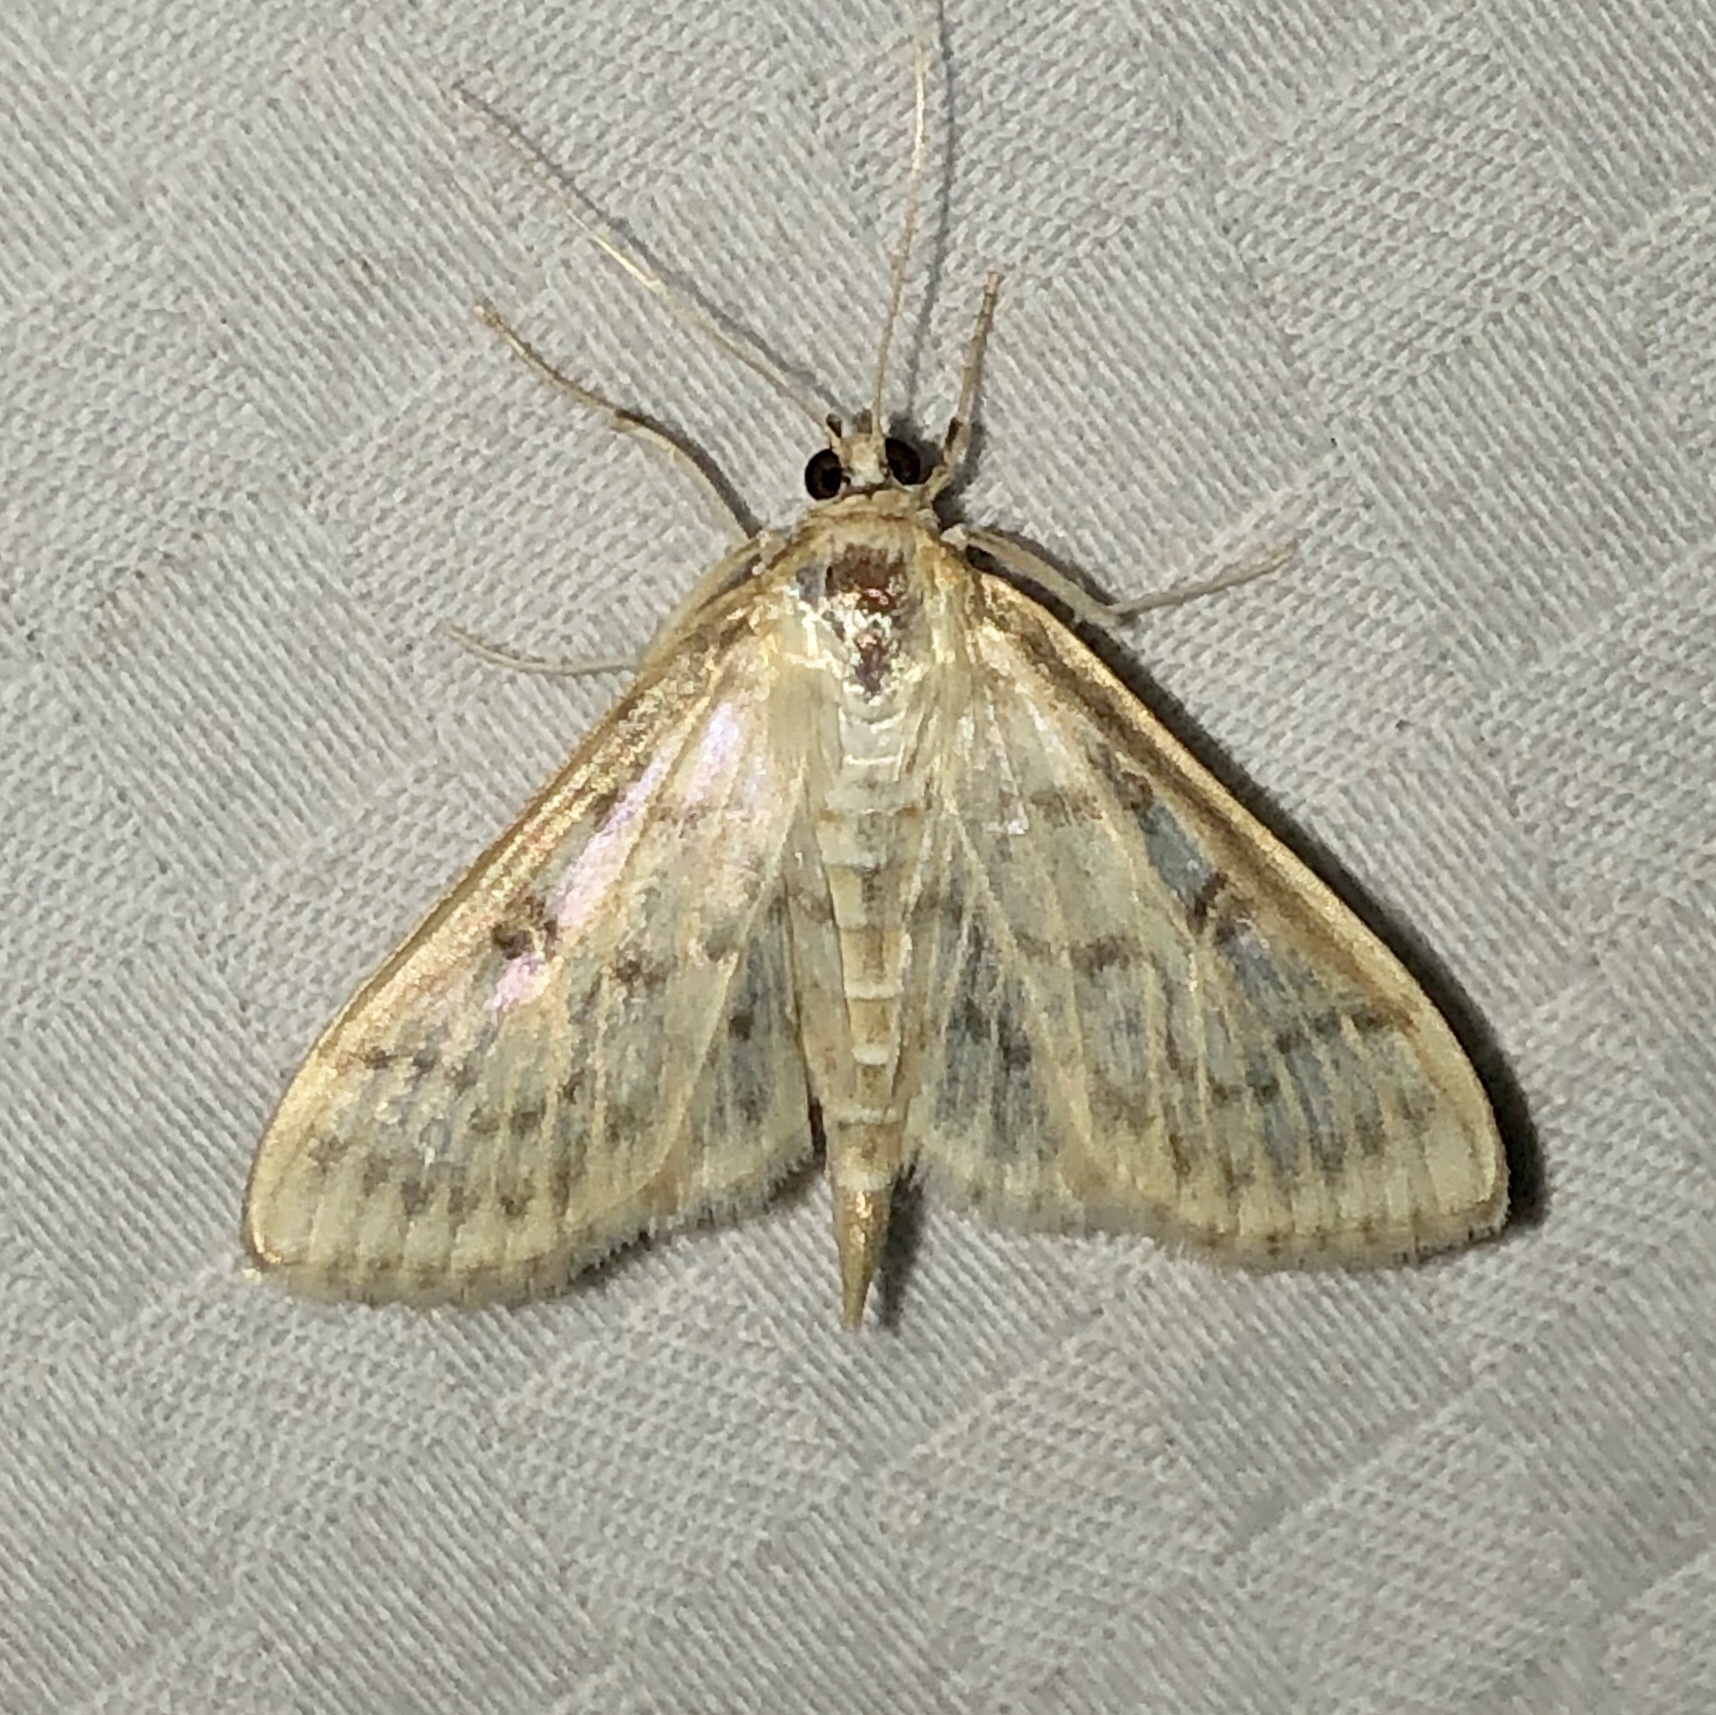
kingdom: Animalia
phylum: Arthropoda
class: Insecta
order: Lepidoptera
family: Crambidae
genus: Herpetogramma
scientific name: Herpetogramma aquilonalis
